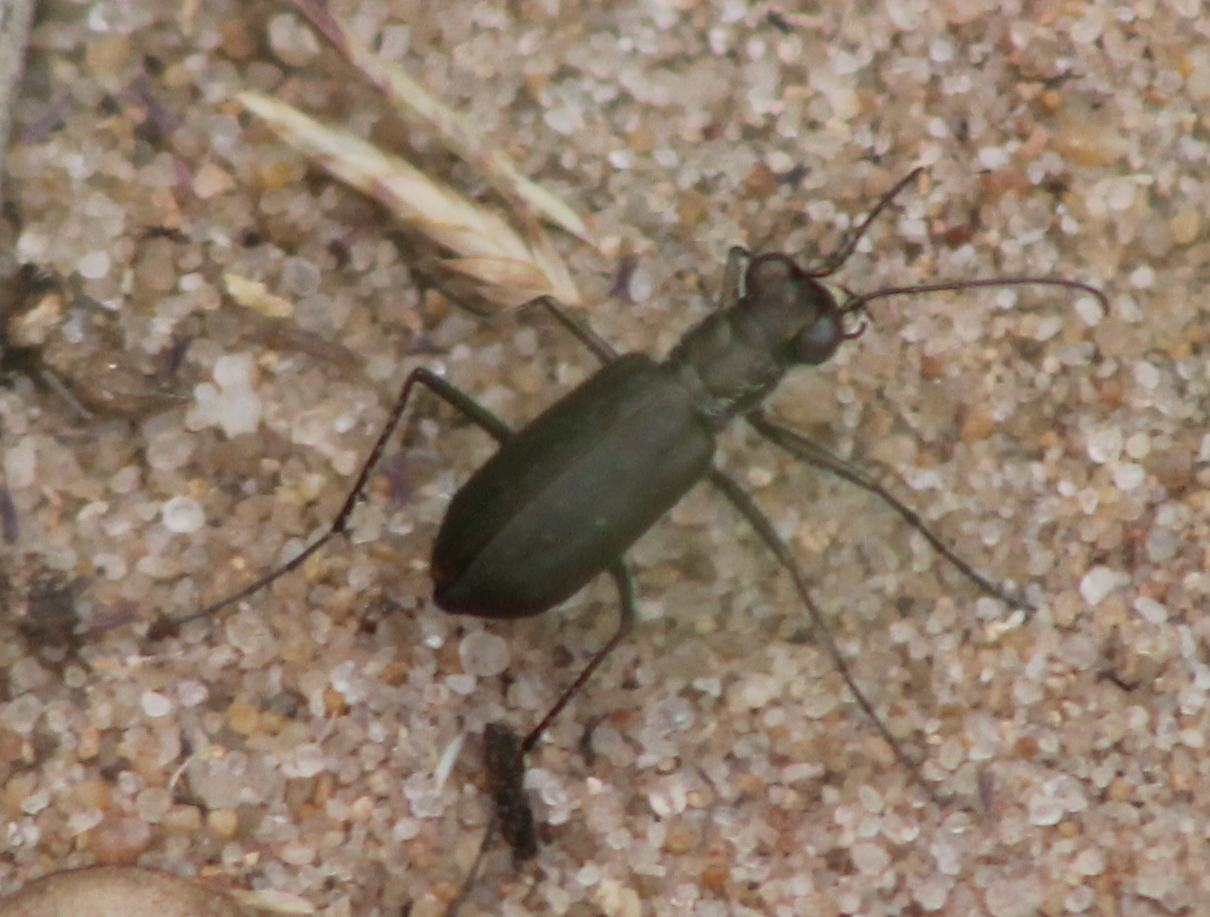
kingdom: Animalia
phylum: Arthropoda
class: Insecta
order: Coleoptera
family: Carabidae
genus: Cicindela
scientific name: Cicindela punctulata
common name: Punctured tiger beetle
